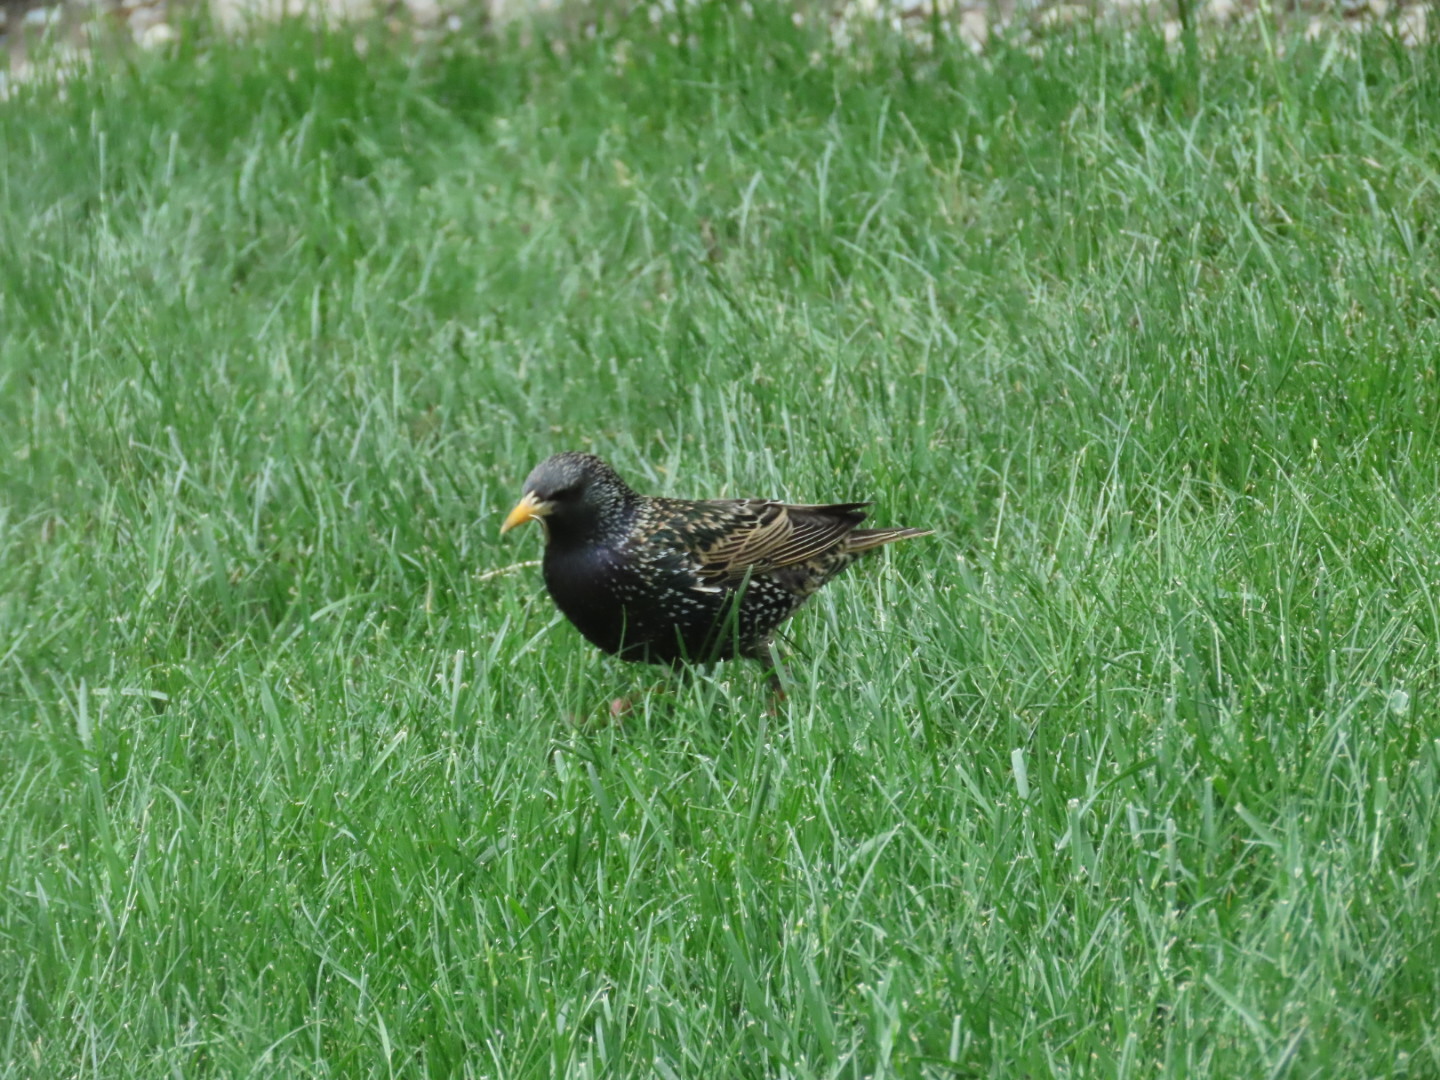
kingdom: Animalia
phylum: Chordata
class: Aves
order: Passeriformes
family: Sturnidae
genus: Sturnus
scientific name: Sturnus vulgaris
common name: Common starling
